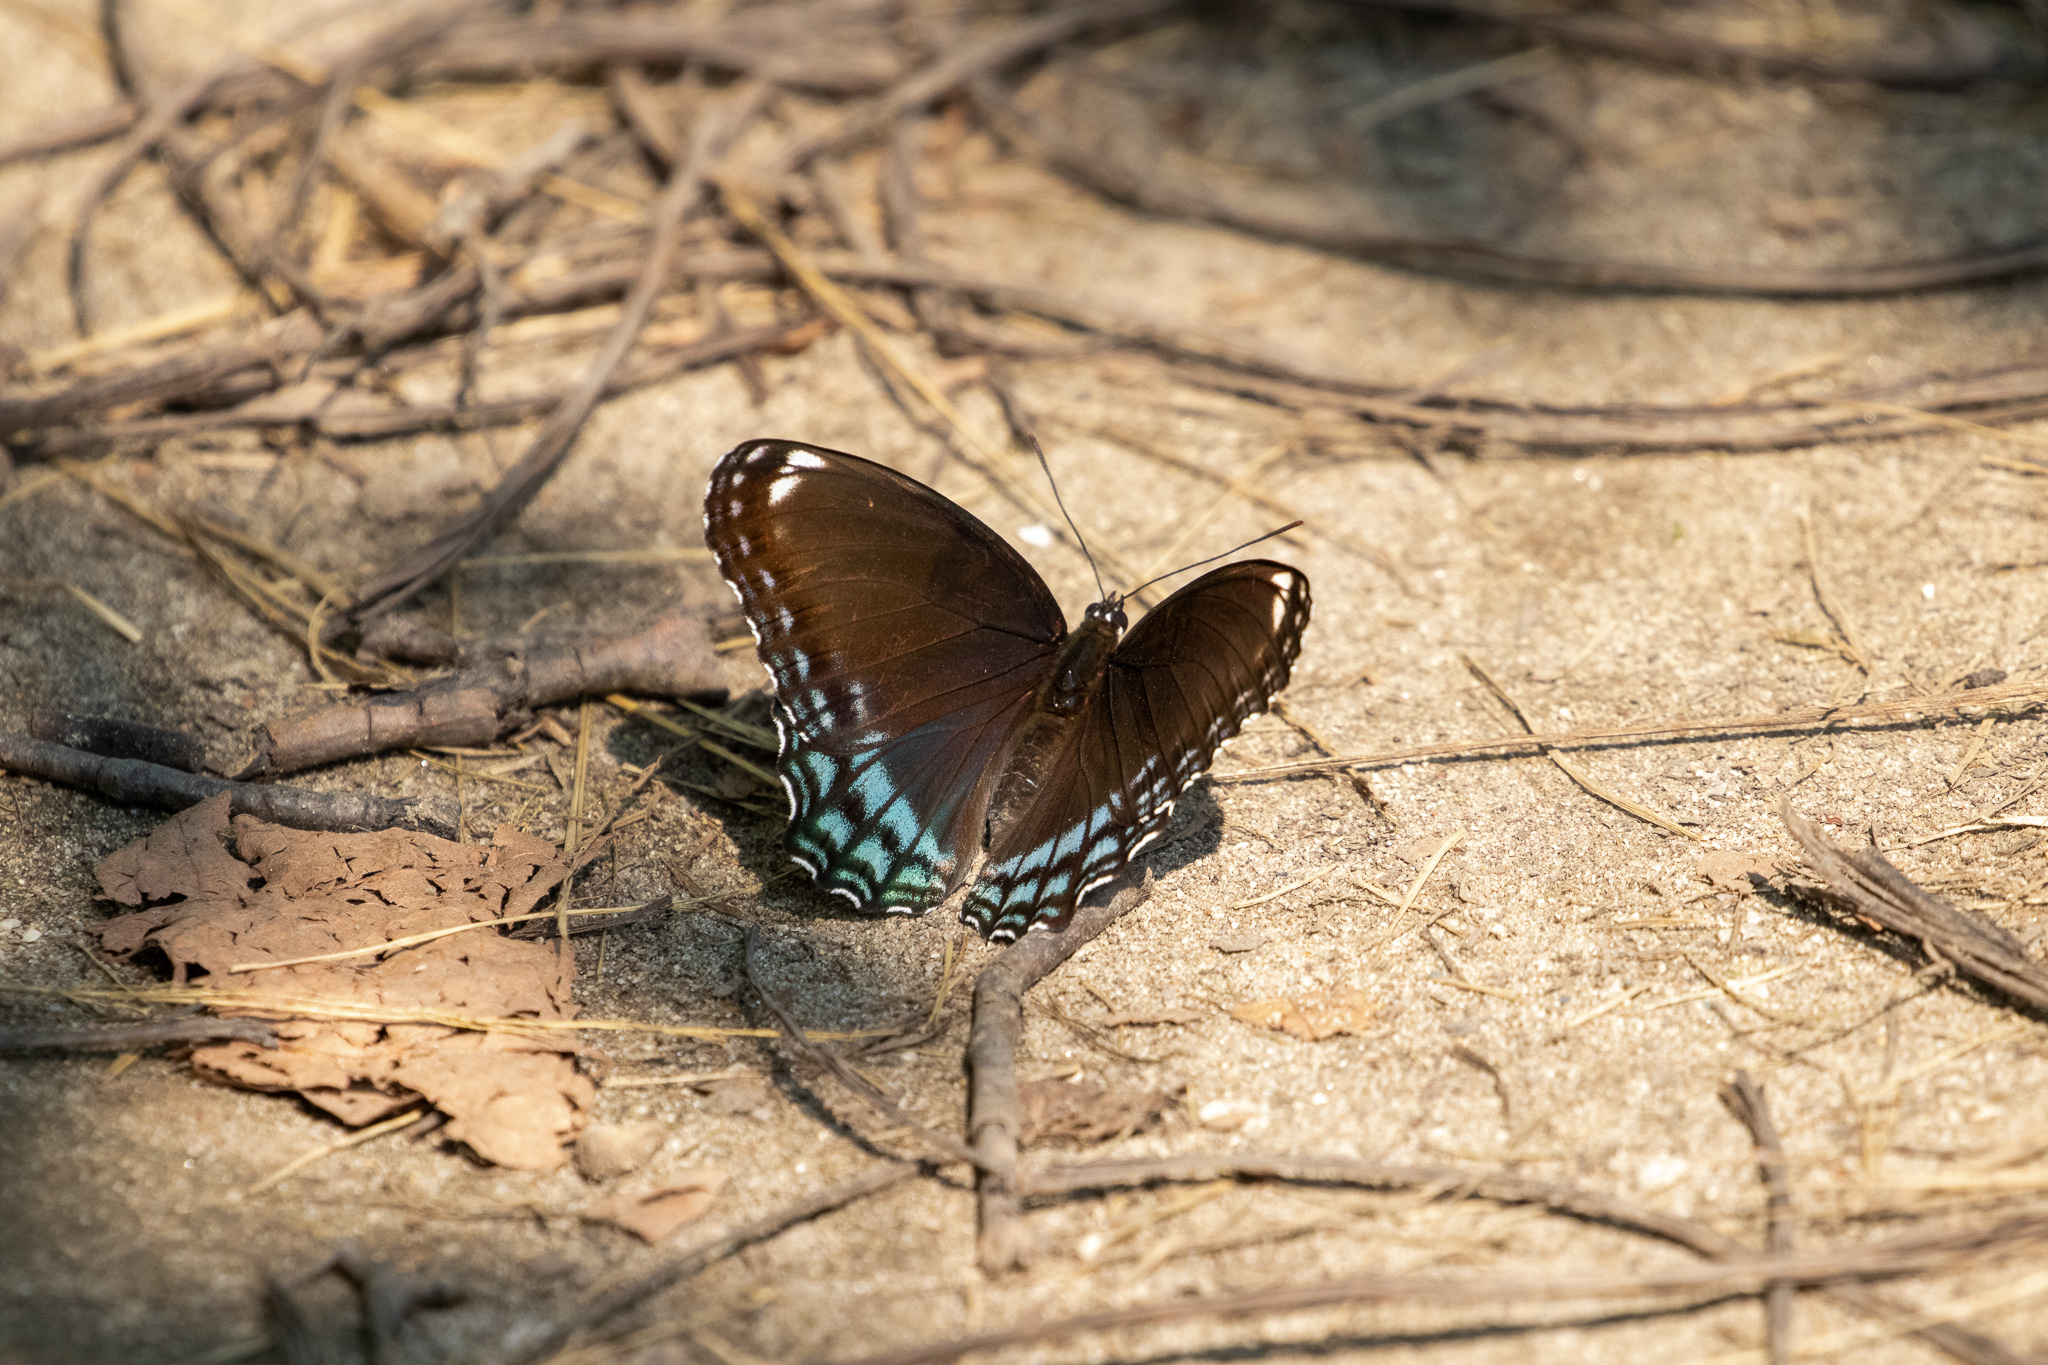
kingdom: Animalia
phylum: Arthropoda
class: Insecta
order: Lepidoptera
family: Nymphalidae
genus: Limenitis
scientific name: Limenitis astyanax
